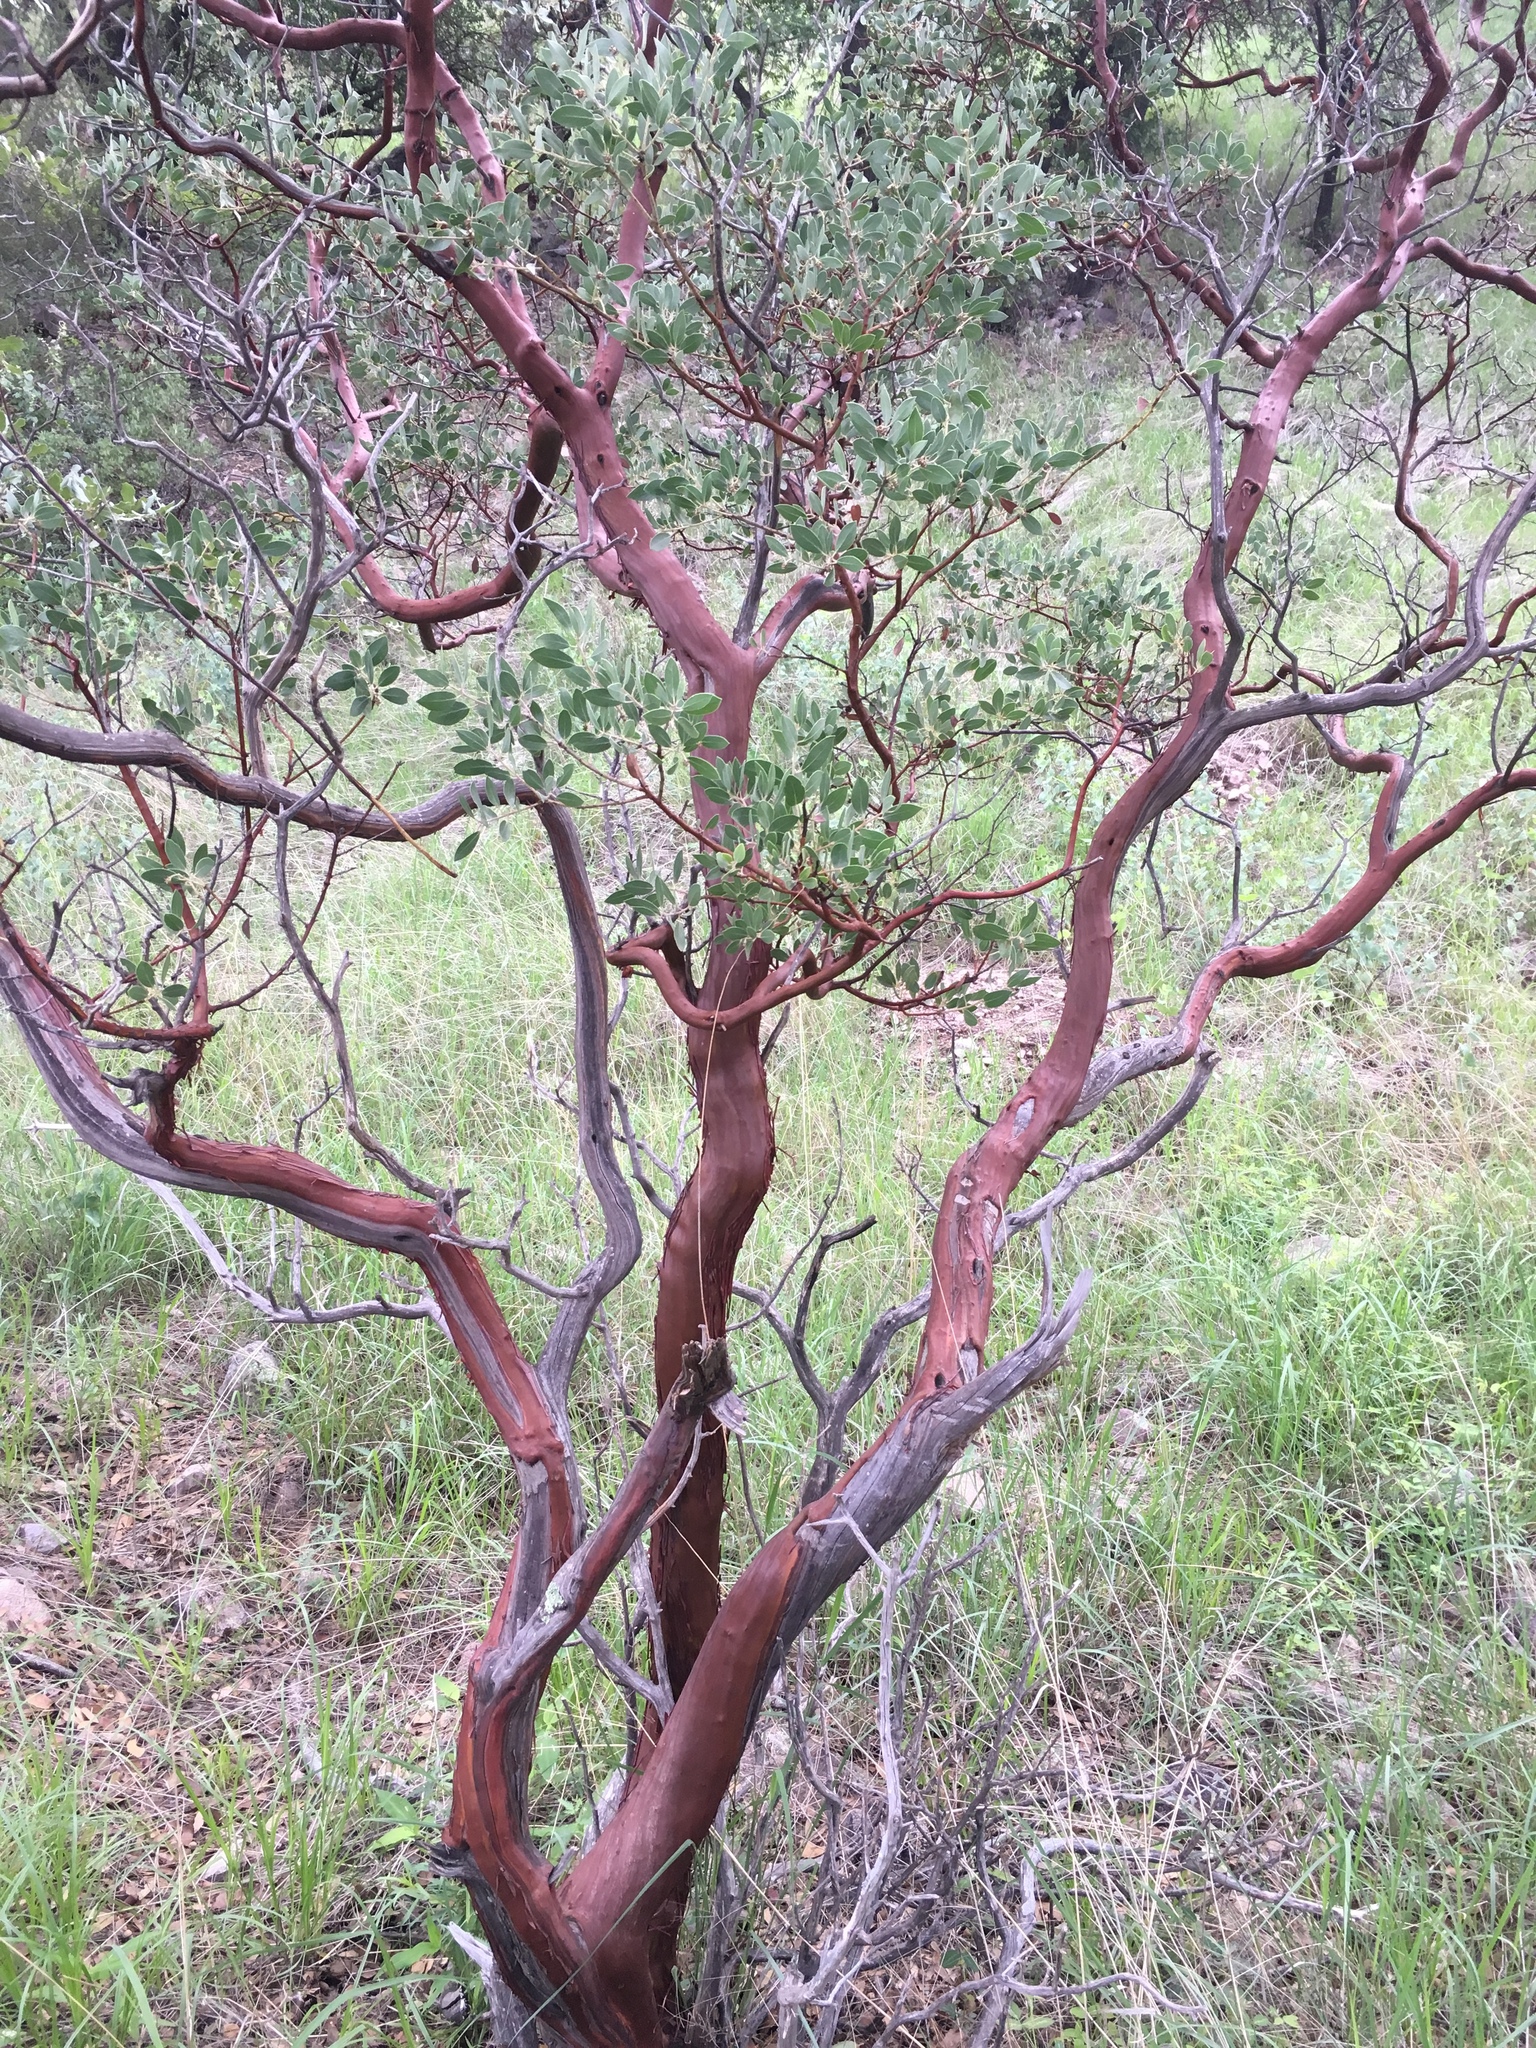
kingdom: Plantae
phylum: Tracheophyta
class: Magnoliopsida
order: Ericales
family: Ericaceae
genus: Arctostaphylos
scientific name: Arctostaphylos pungens
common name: Mexican manzanita
